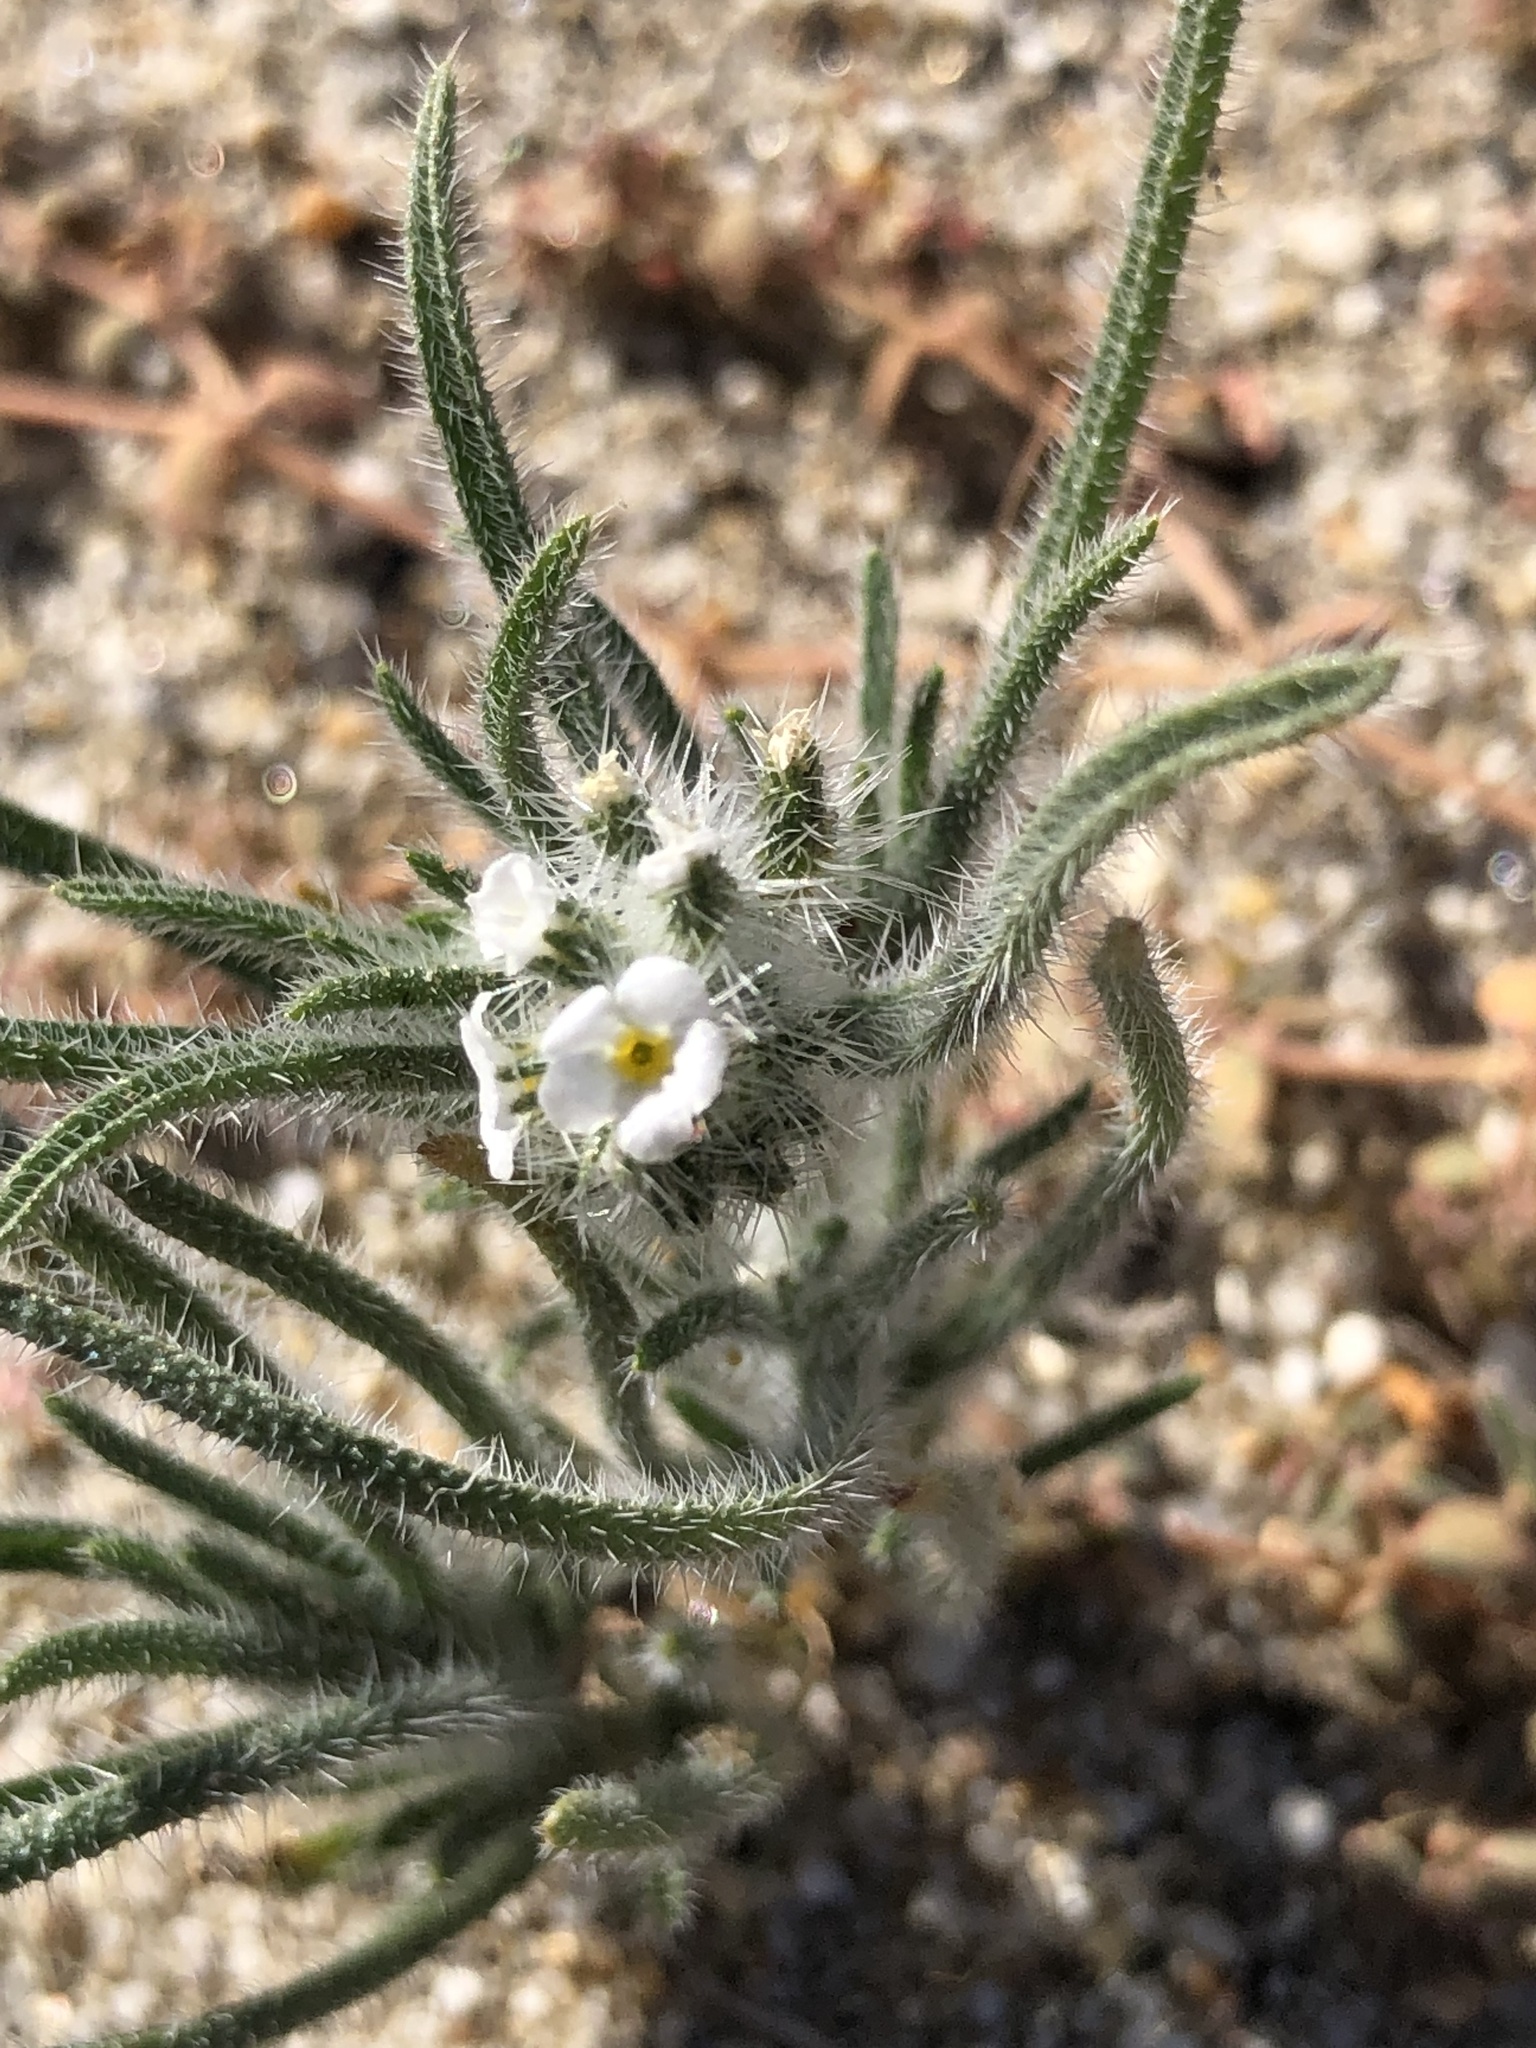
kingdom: Plantae
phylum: Tracheophyta
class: Magnoliopsida
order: Boraginales
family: Boraginaceae
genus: Johnstonella
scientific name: Johnstonella angustifolia
